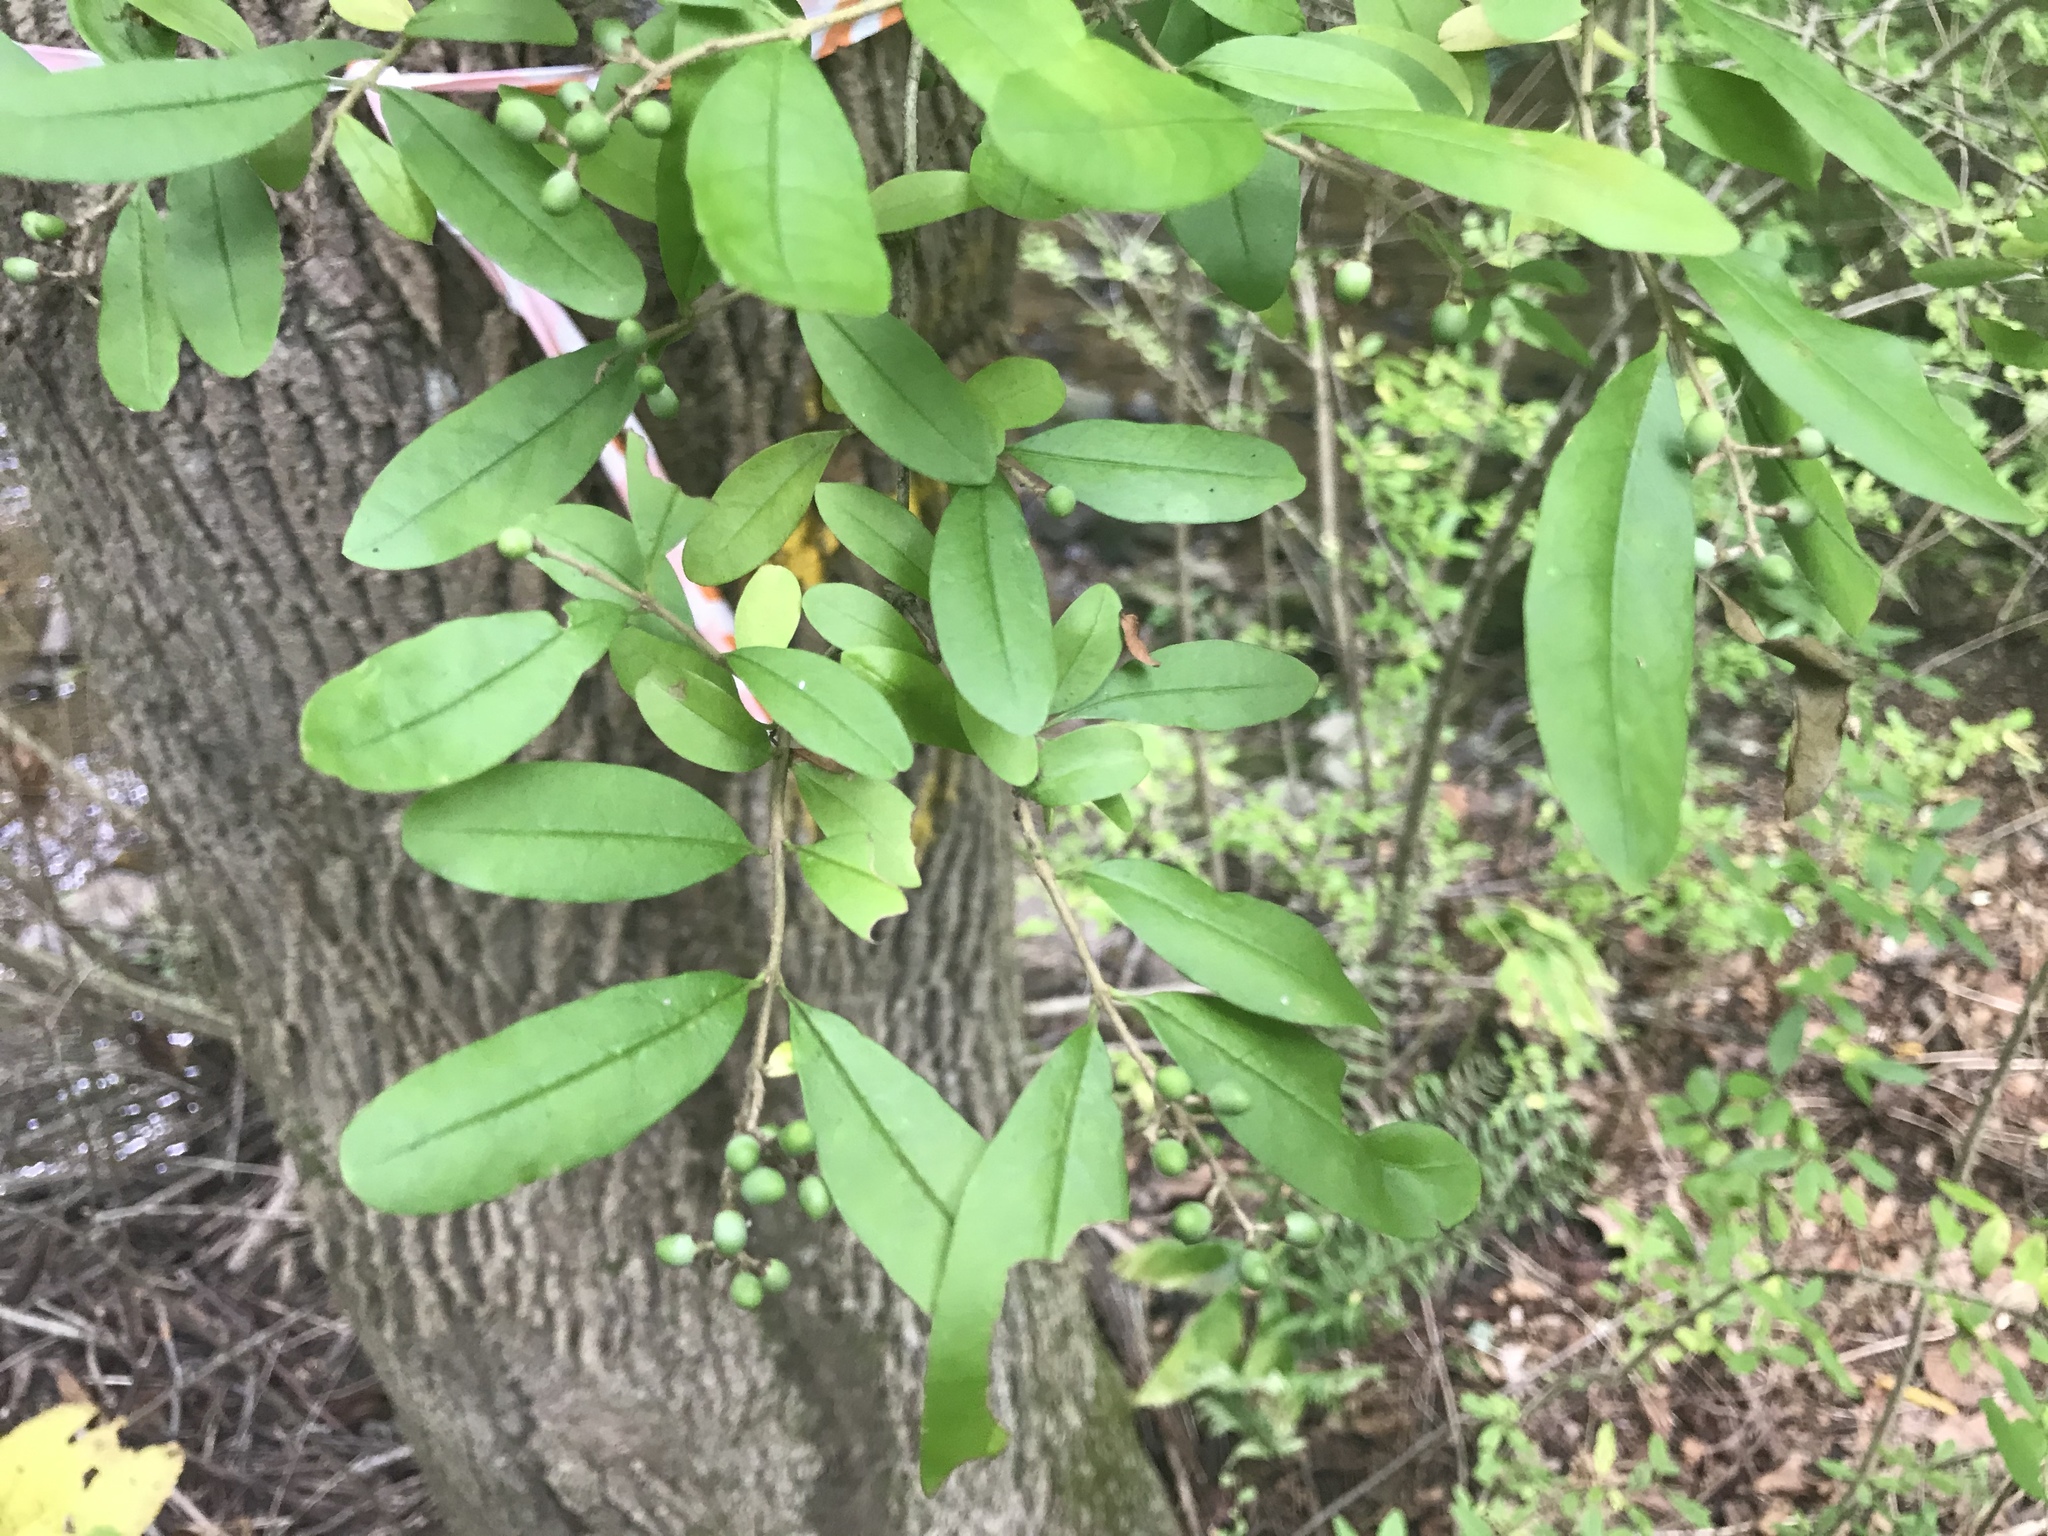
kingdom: Plantae
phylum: Tracheophyta
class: Magnoliopsida
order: Lamiales
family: Oleaceae
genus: Ligustrum
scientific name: Ligustrum obtusifolium
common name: Border privet
